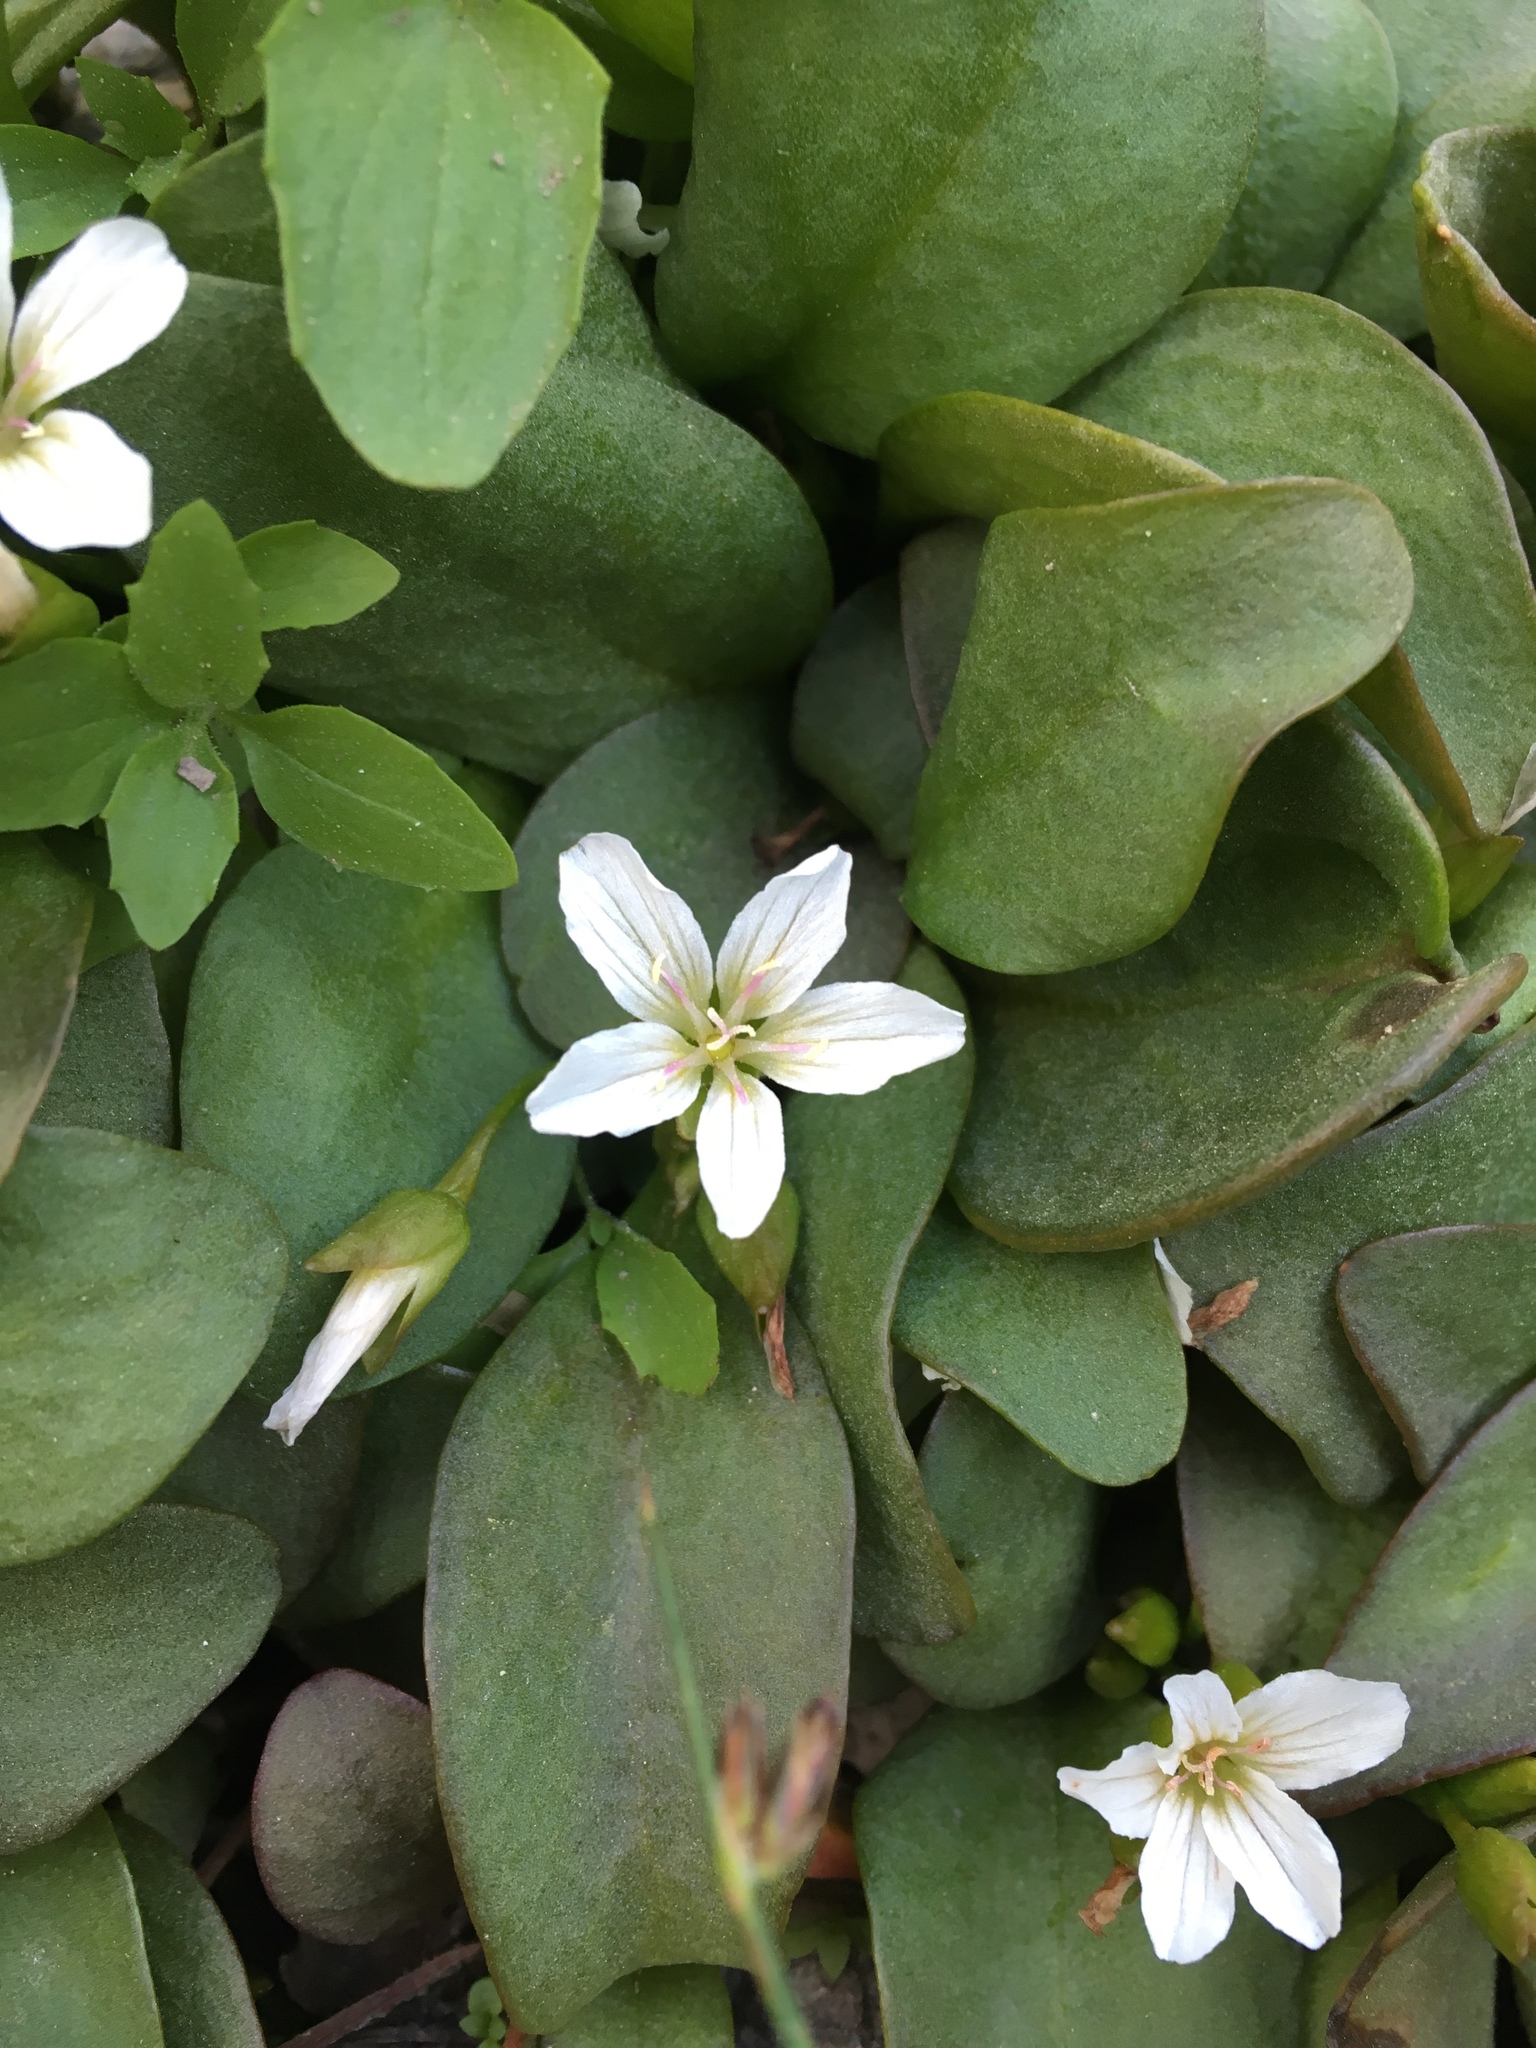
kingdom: Plantae
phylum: Tracheophyta
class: Magnoliopsida
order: Caryophyllales
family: Montiaceae
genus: Claytonia
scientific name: Claytonia nevadensis
